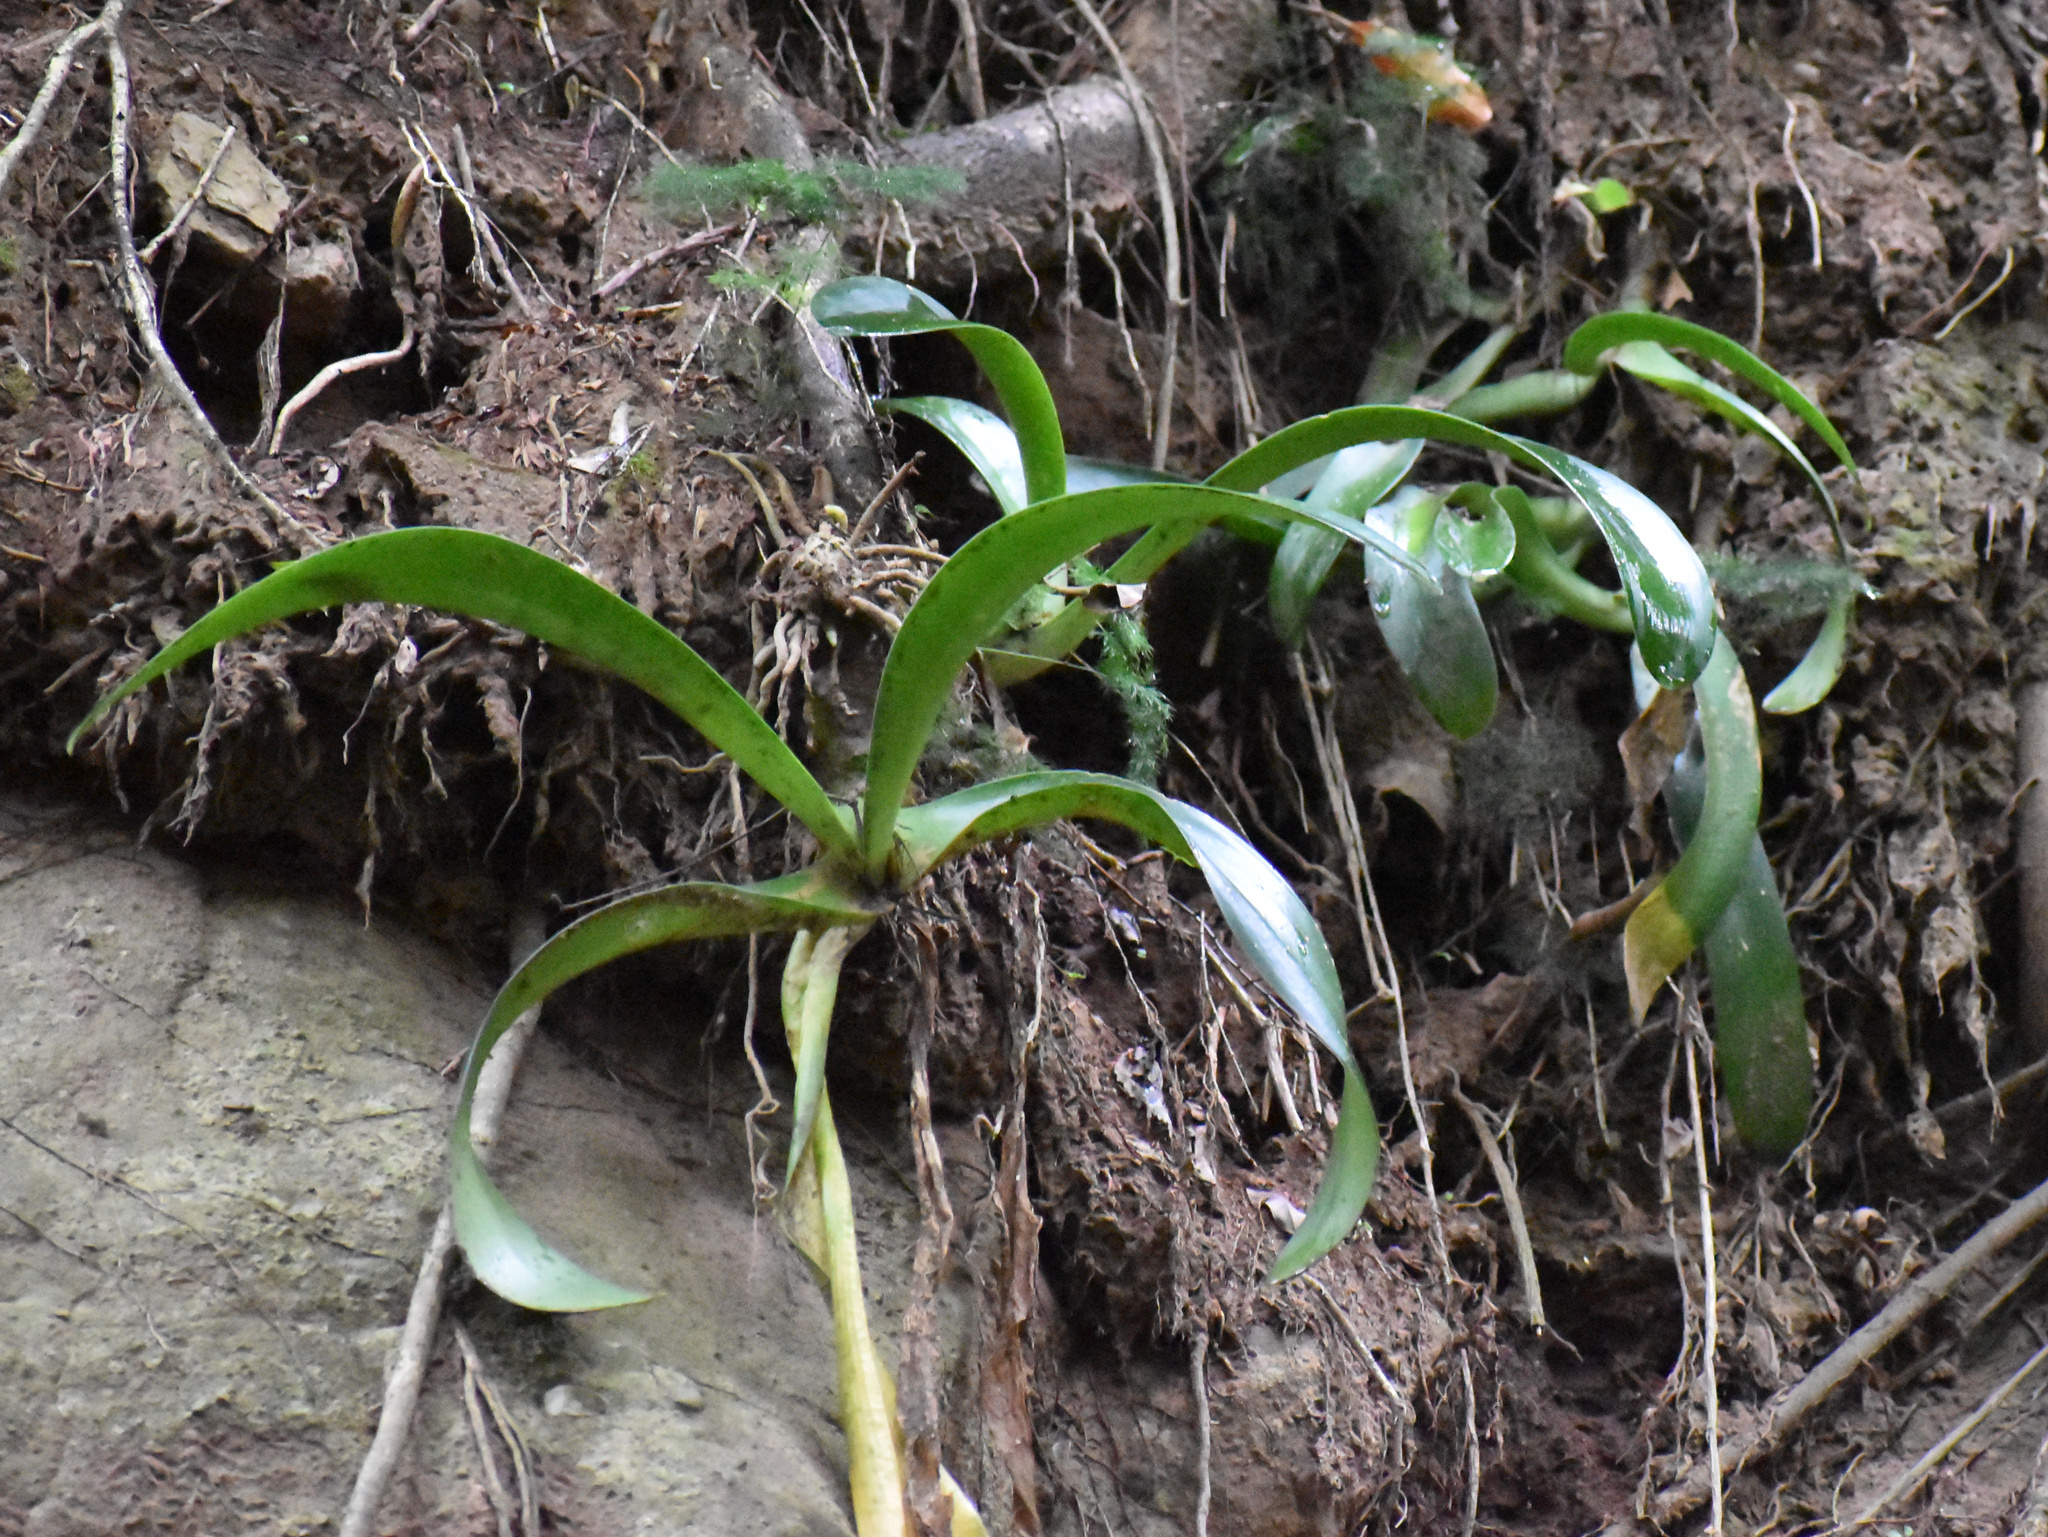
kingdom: Plantae
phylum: Tracheophyta
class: Liliopsida
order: Asparagales
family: Amaryllidaceae
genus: Haemanthus
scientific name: Haemanthus albiflos
